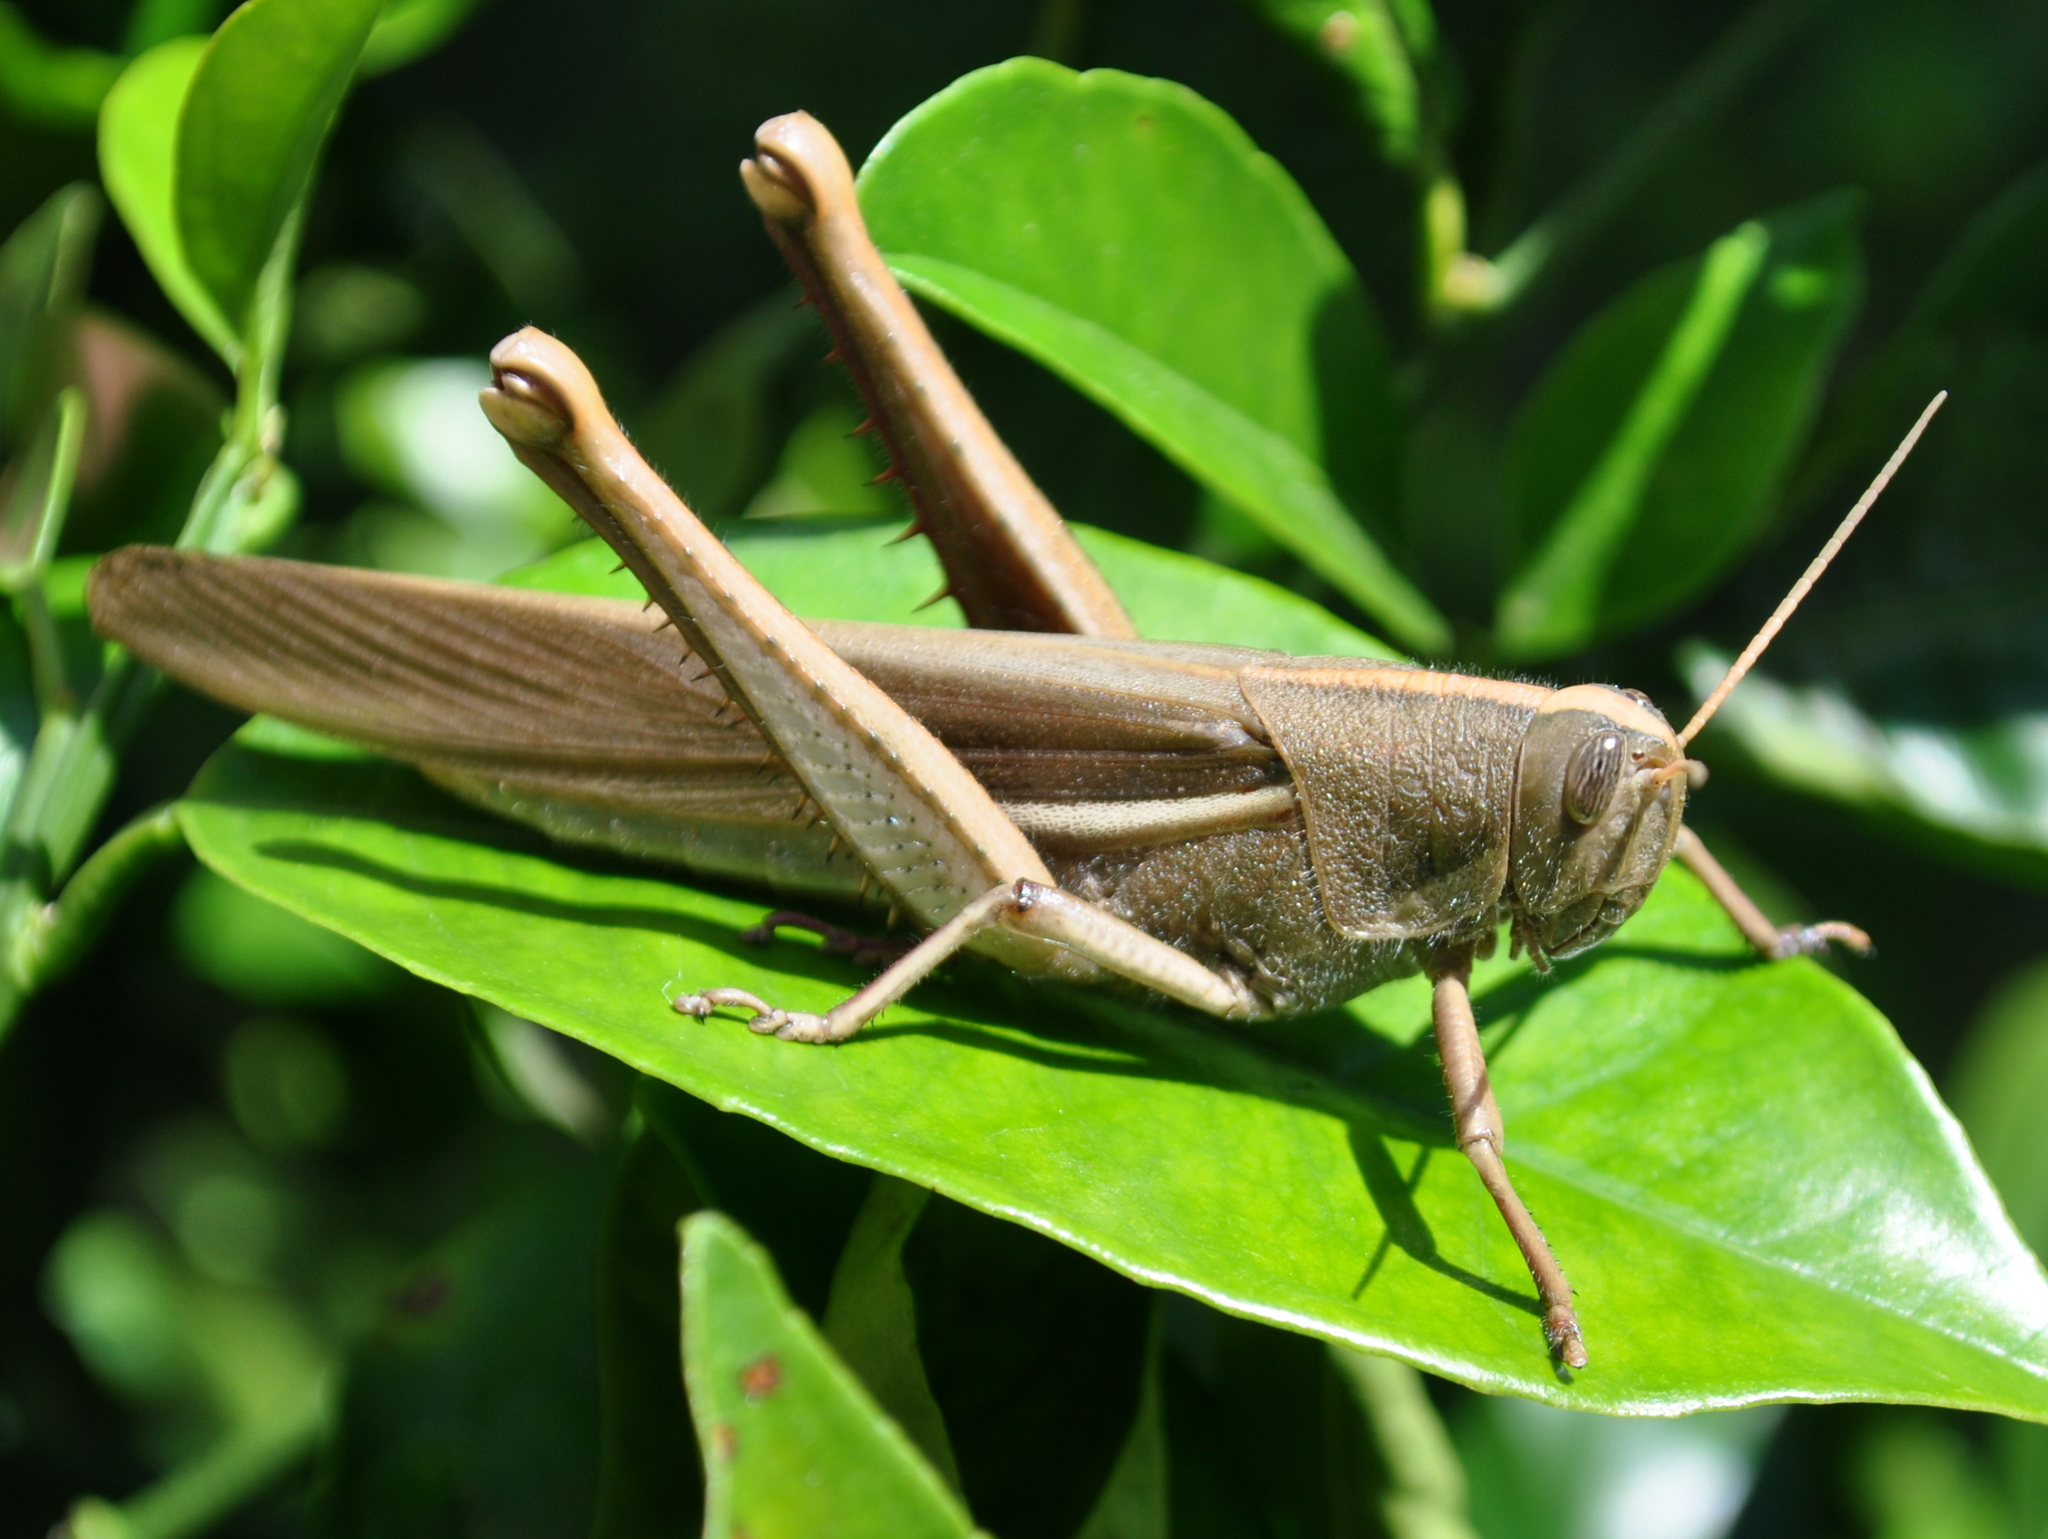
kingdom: Animalia
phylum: Arthropoda
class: Insecta
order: Orthoptera
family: Acrididae
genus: Schistocerca
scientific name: Schistocerca flavofasciata
